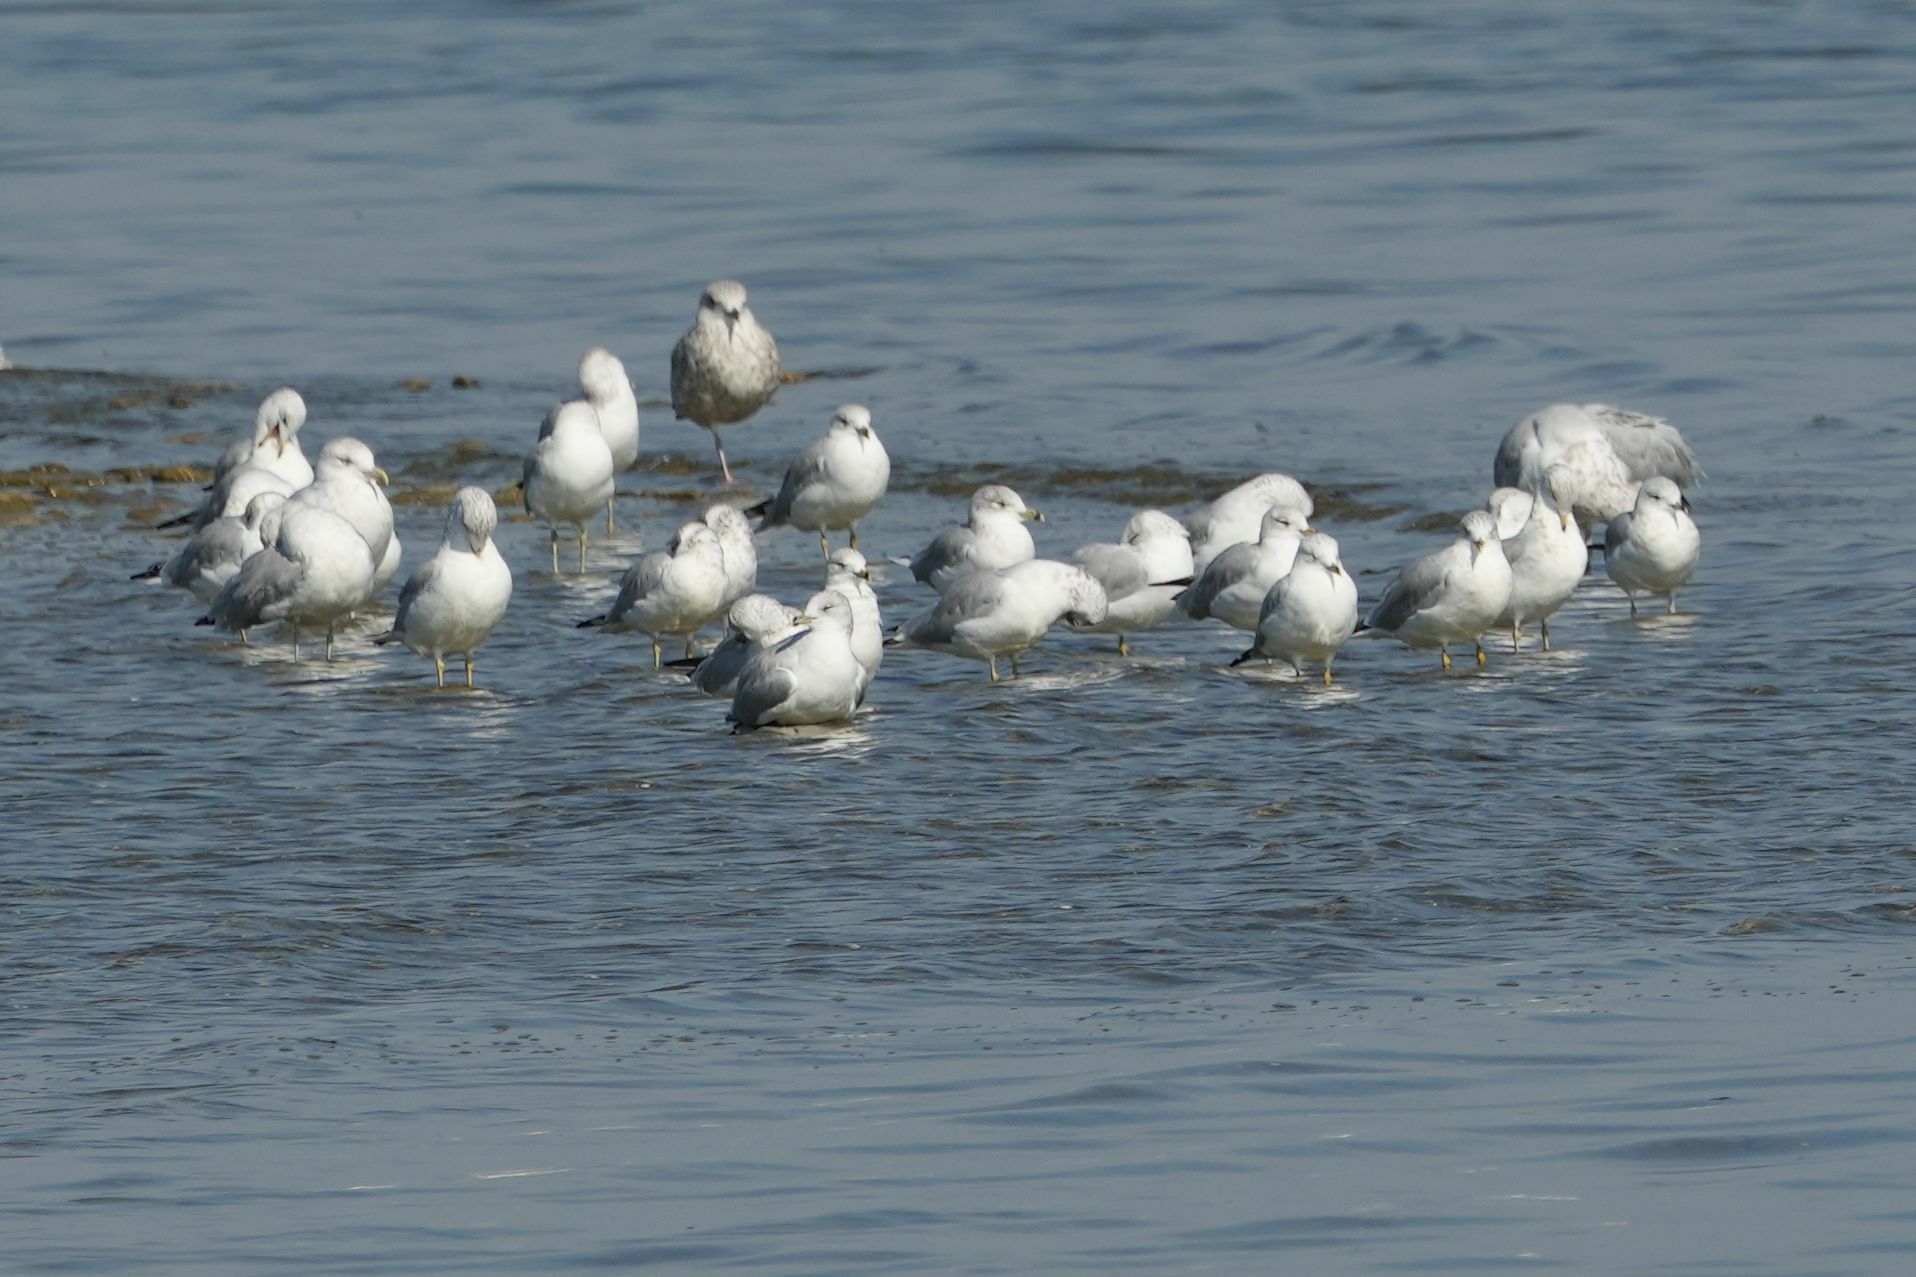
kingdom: Animalia
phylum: Chordata
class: Aves
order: Charadriiformes
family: Laridae
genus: Larus
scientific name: Larus delawarensis
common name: Ring-billed gull
